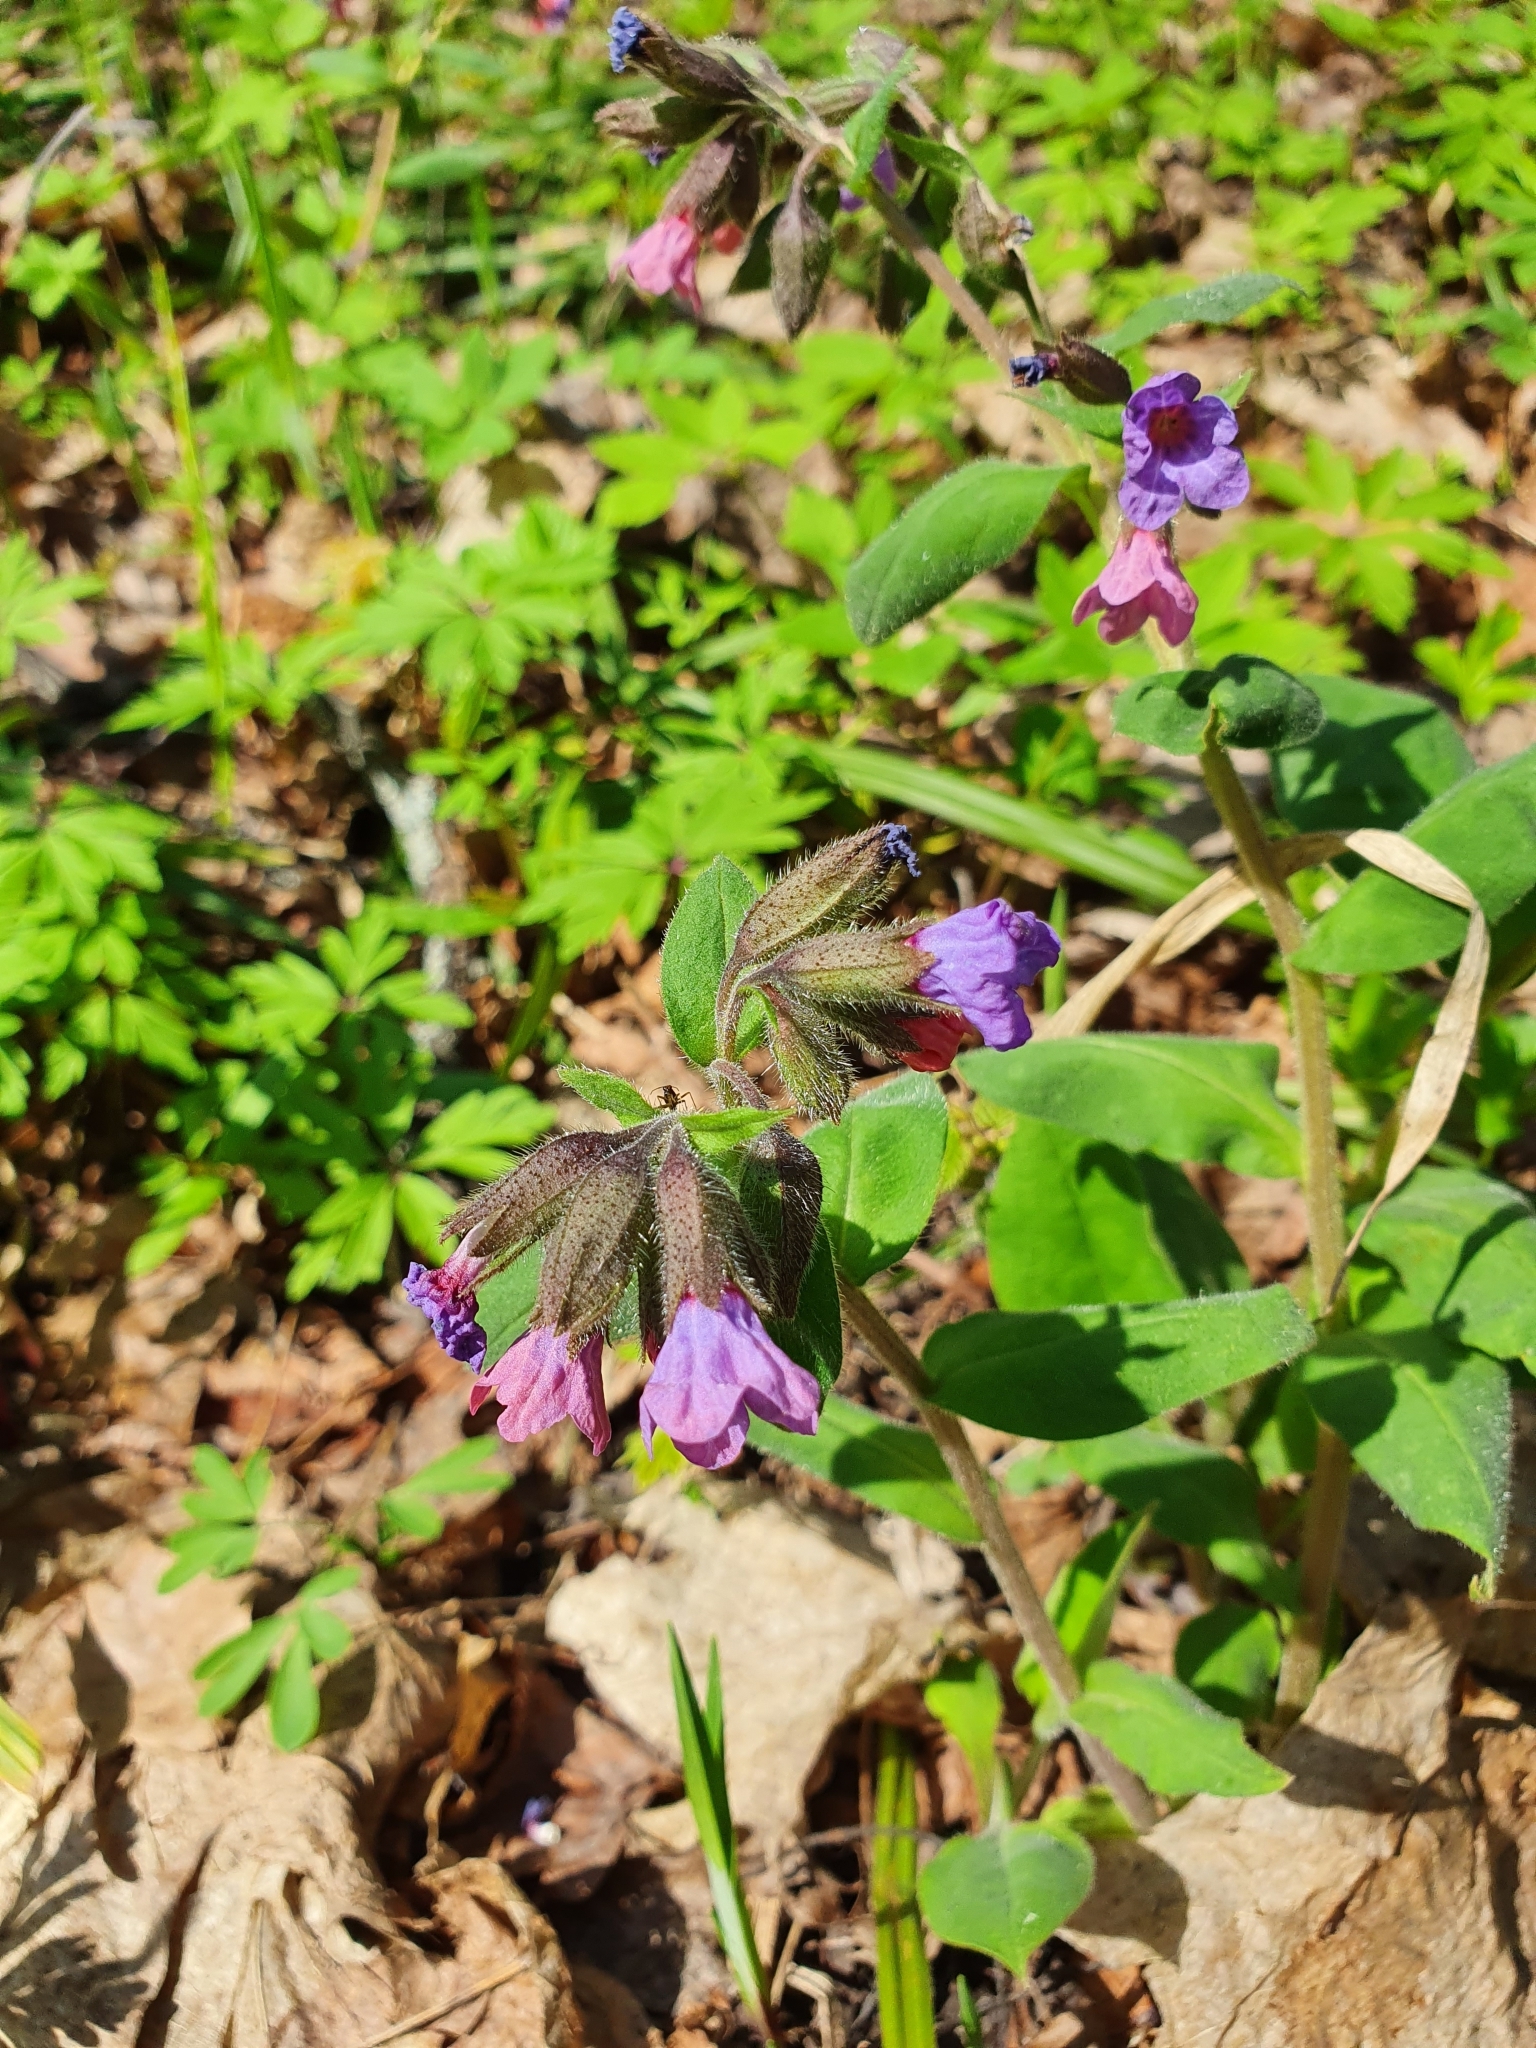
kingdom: Plantae
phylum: Tracheophyta
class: Magnoliopsida
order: Boraginales
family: Boraginaceae
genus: Pulmonaria
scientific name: Pulmonaria obscura
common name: Suffolk lungwort
